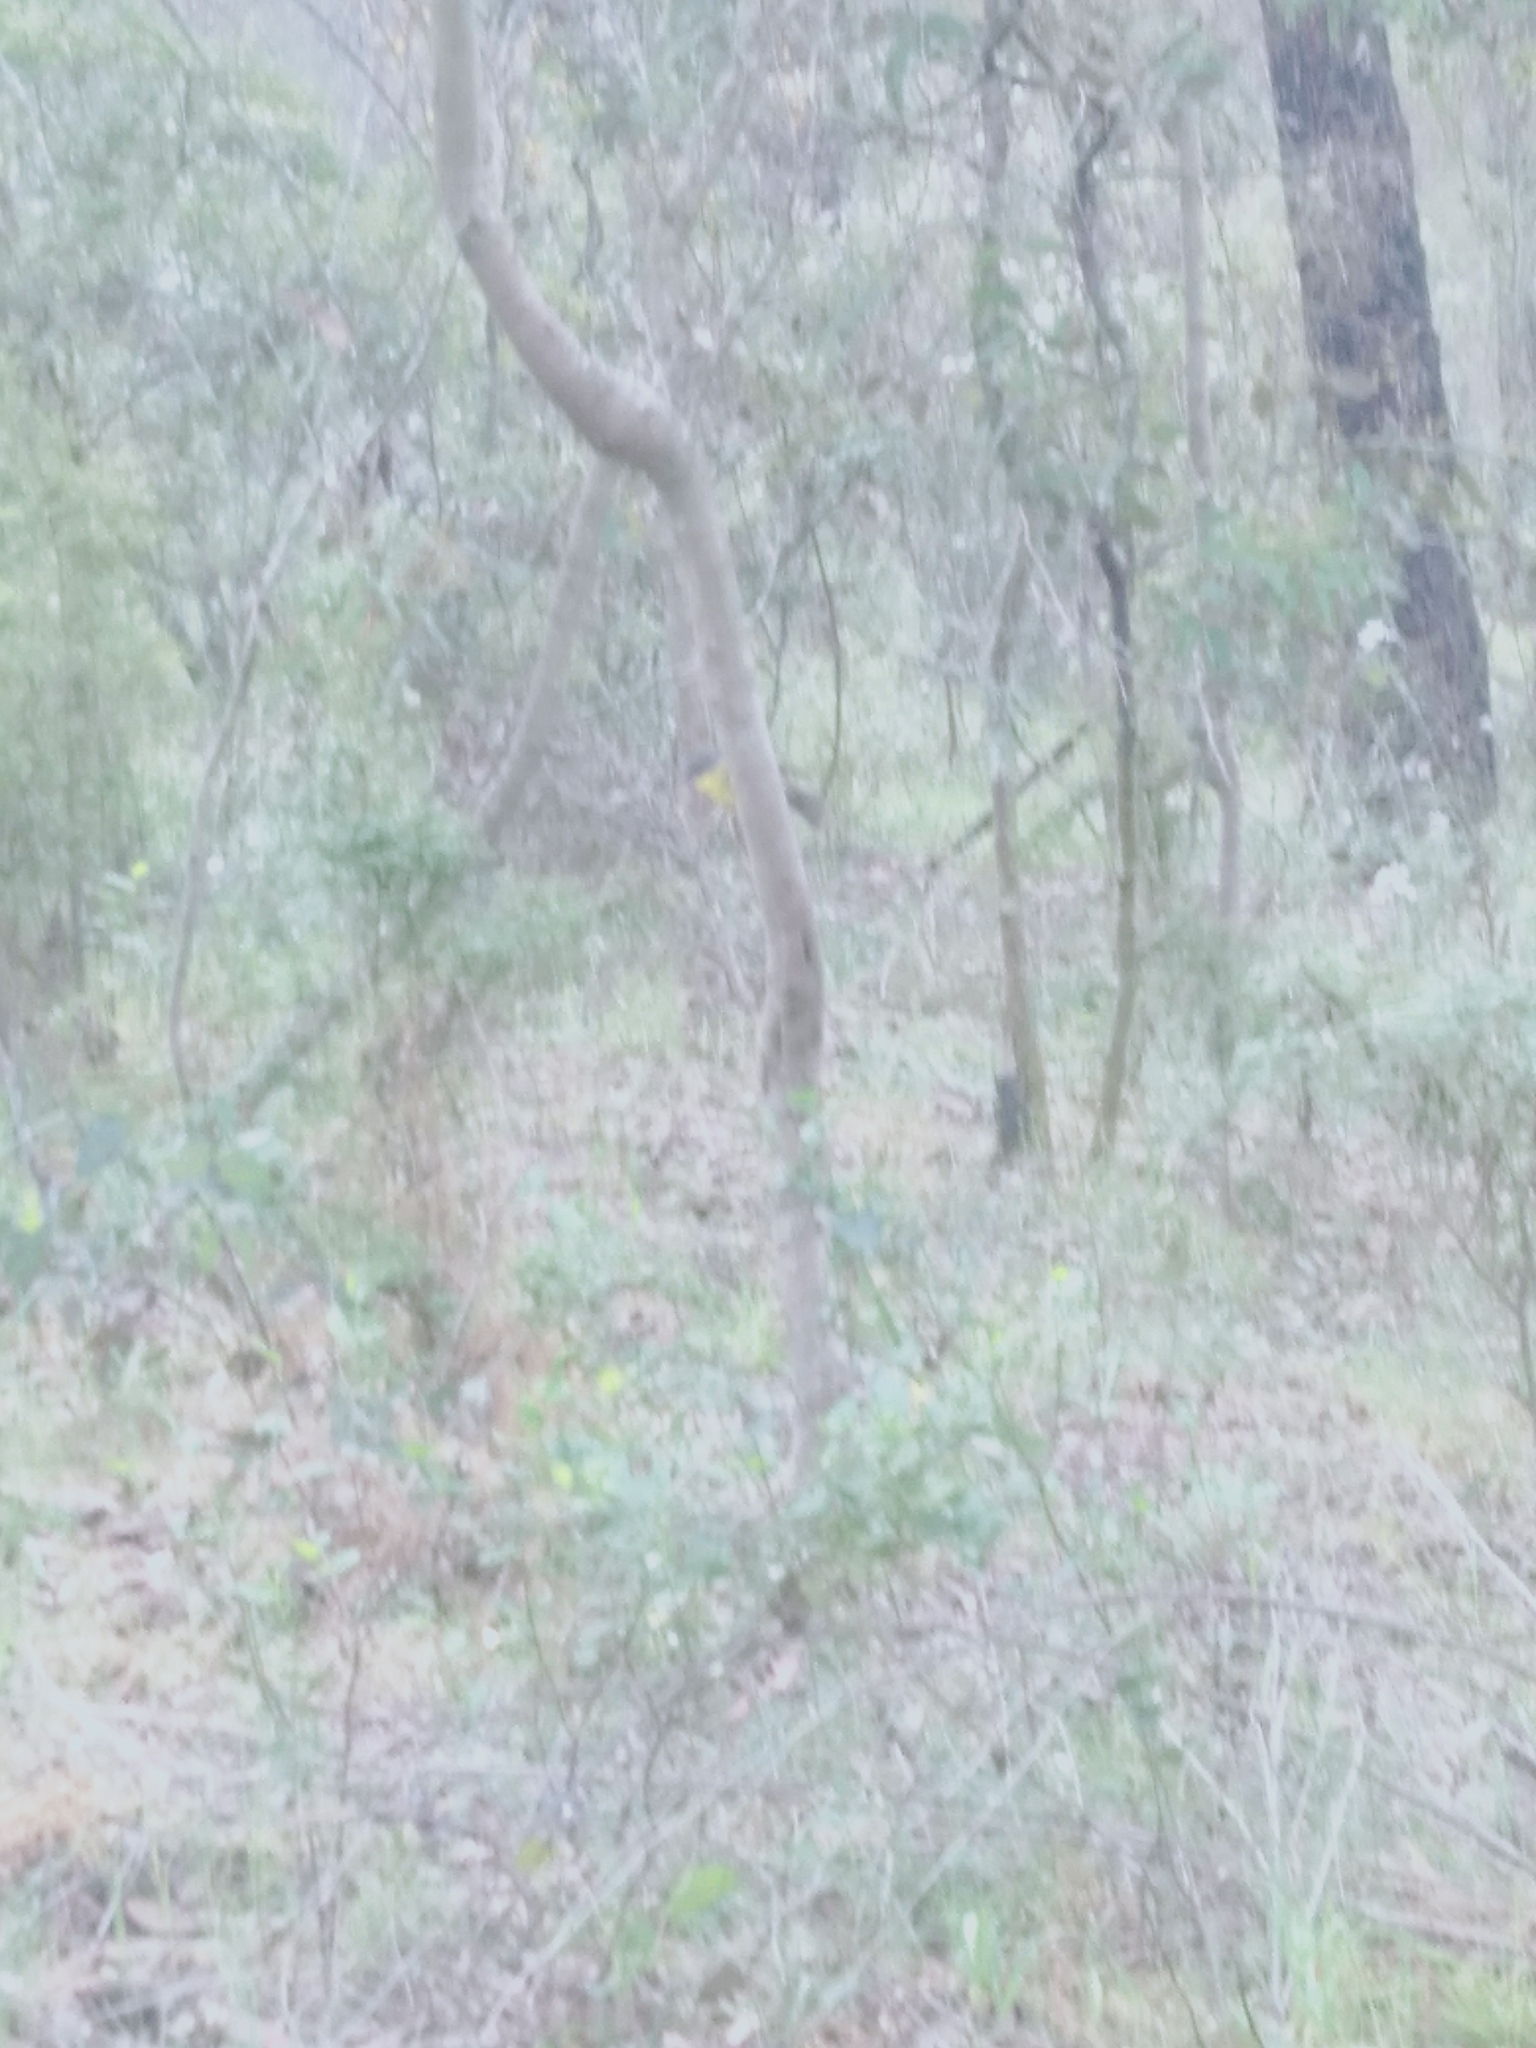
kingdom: Animalia
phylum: Chordata
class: Aves
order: Passeriformes
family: Petroicidae
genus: Eopsaltria
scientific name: Eopsaltria australis
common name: Eastern yellow robin
